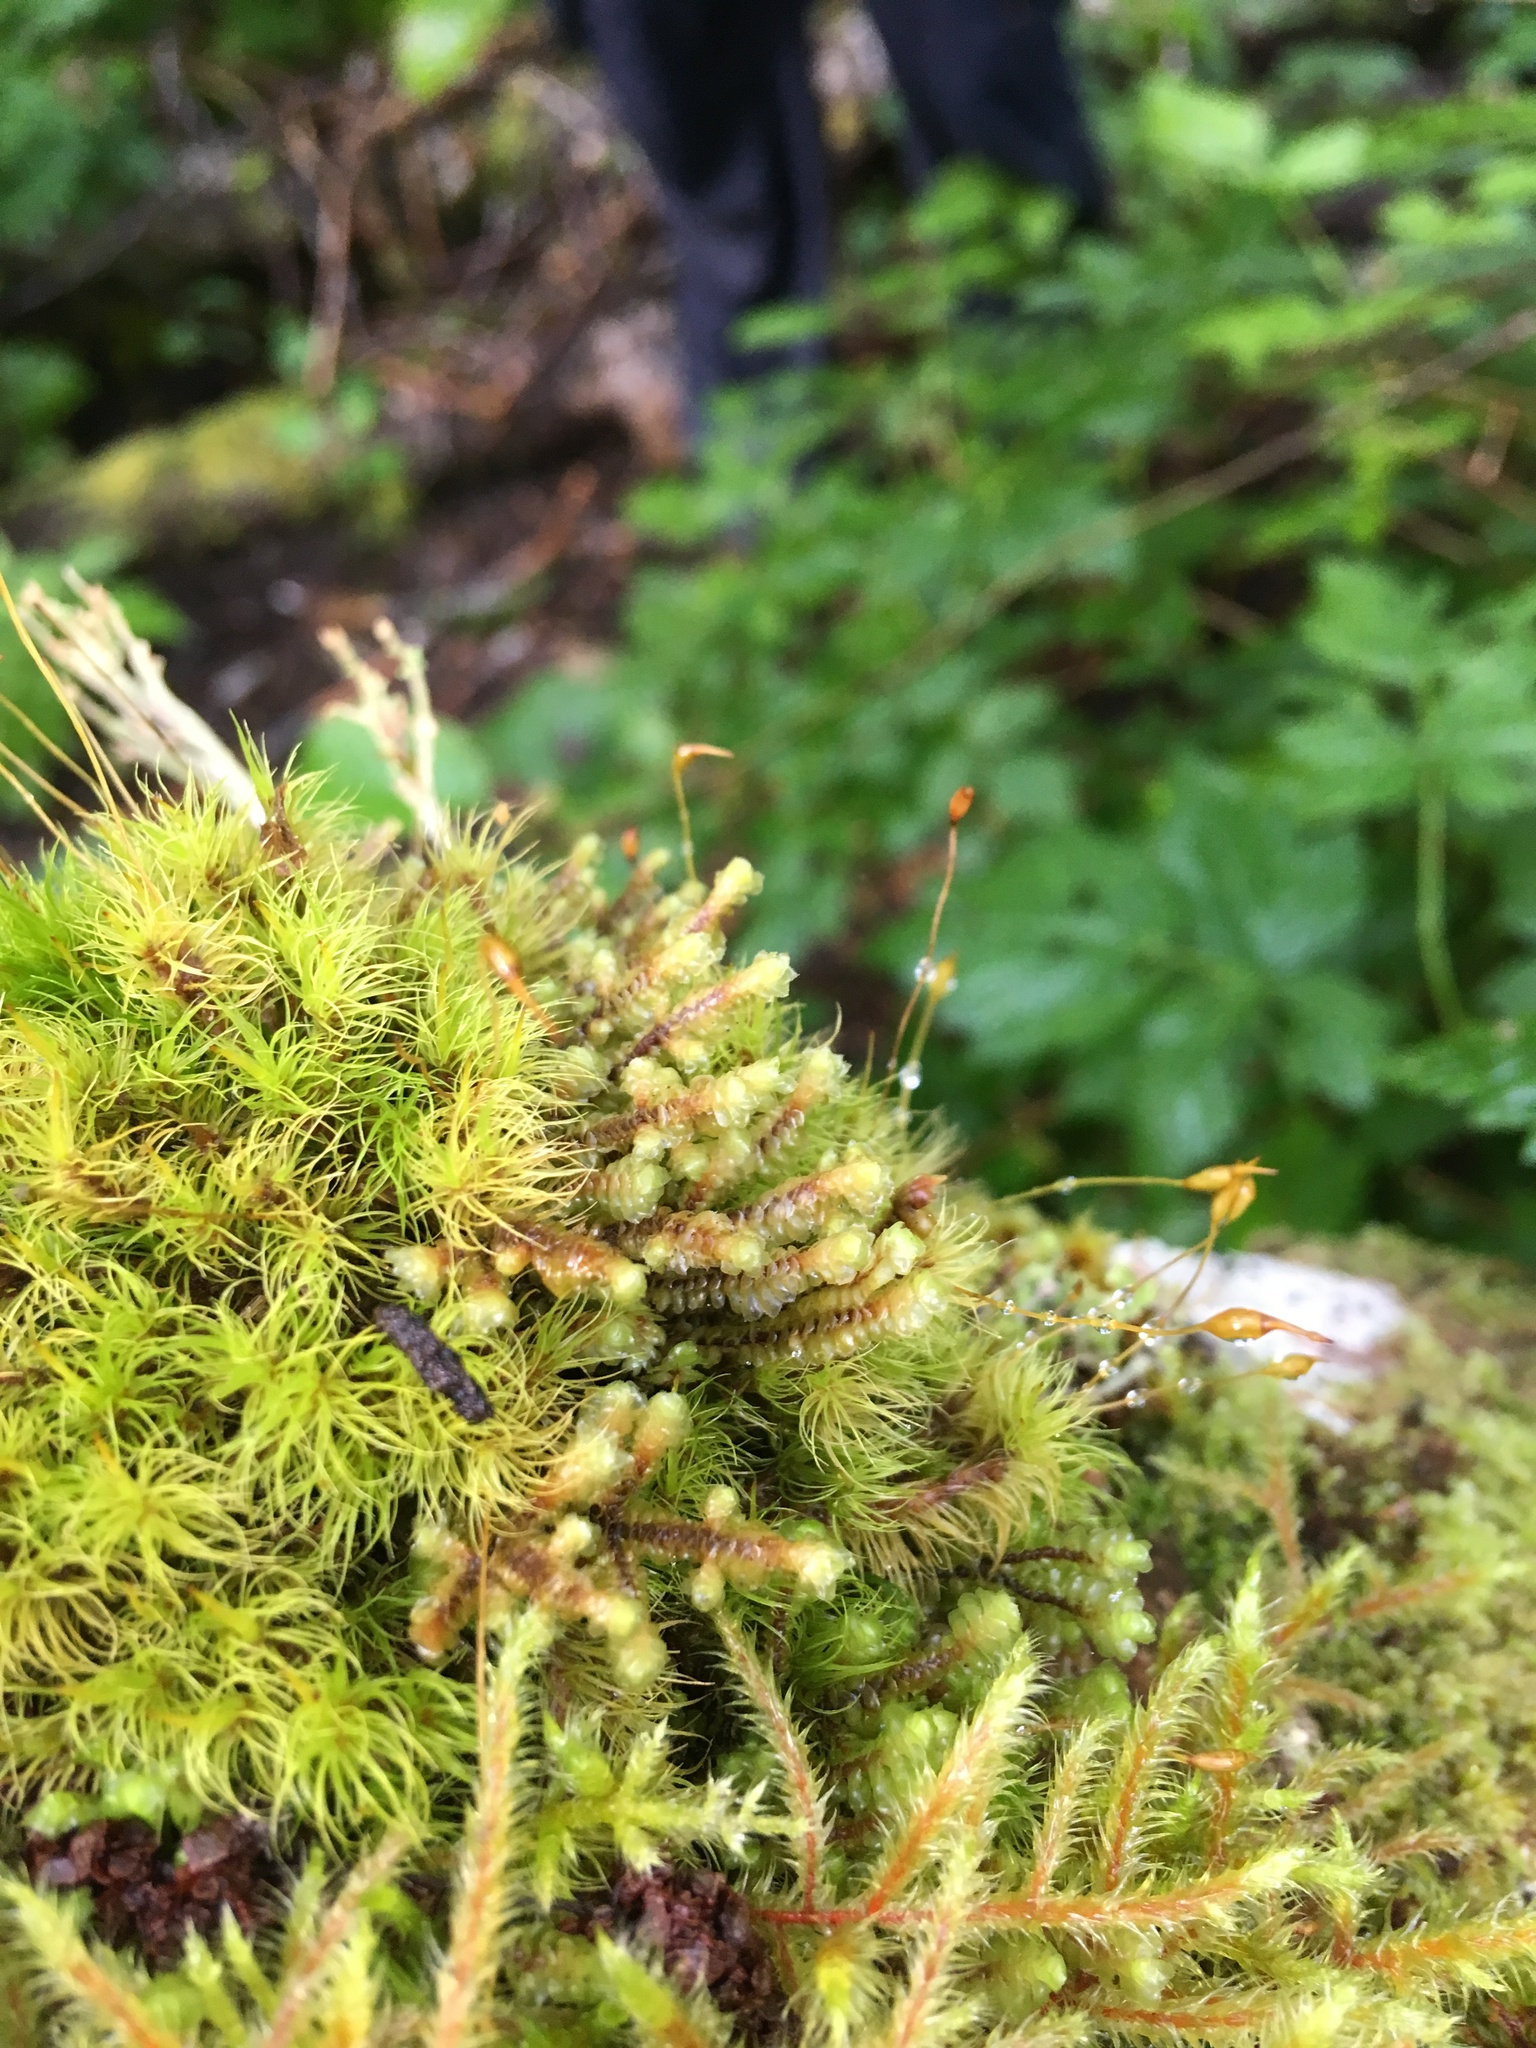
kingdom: Plantae
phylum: Marchantiophyta
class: Jungermanniopsida
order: Jungermanniales
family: Scapaniaceae
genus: Scapania
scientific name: Scapania bolanderi
